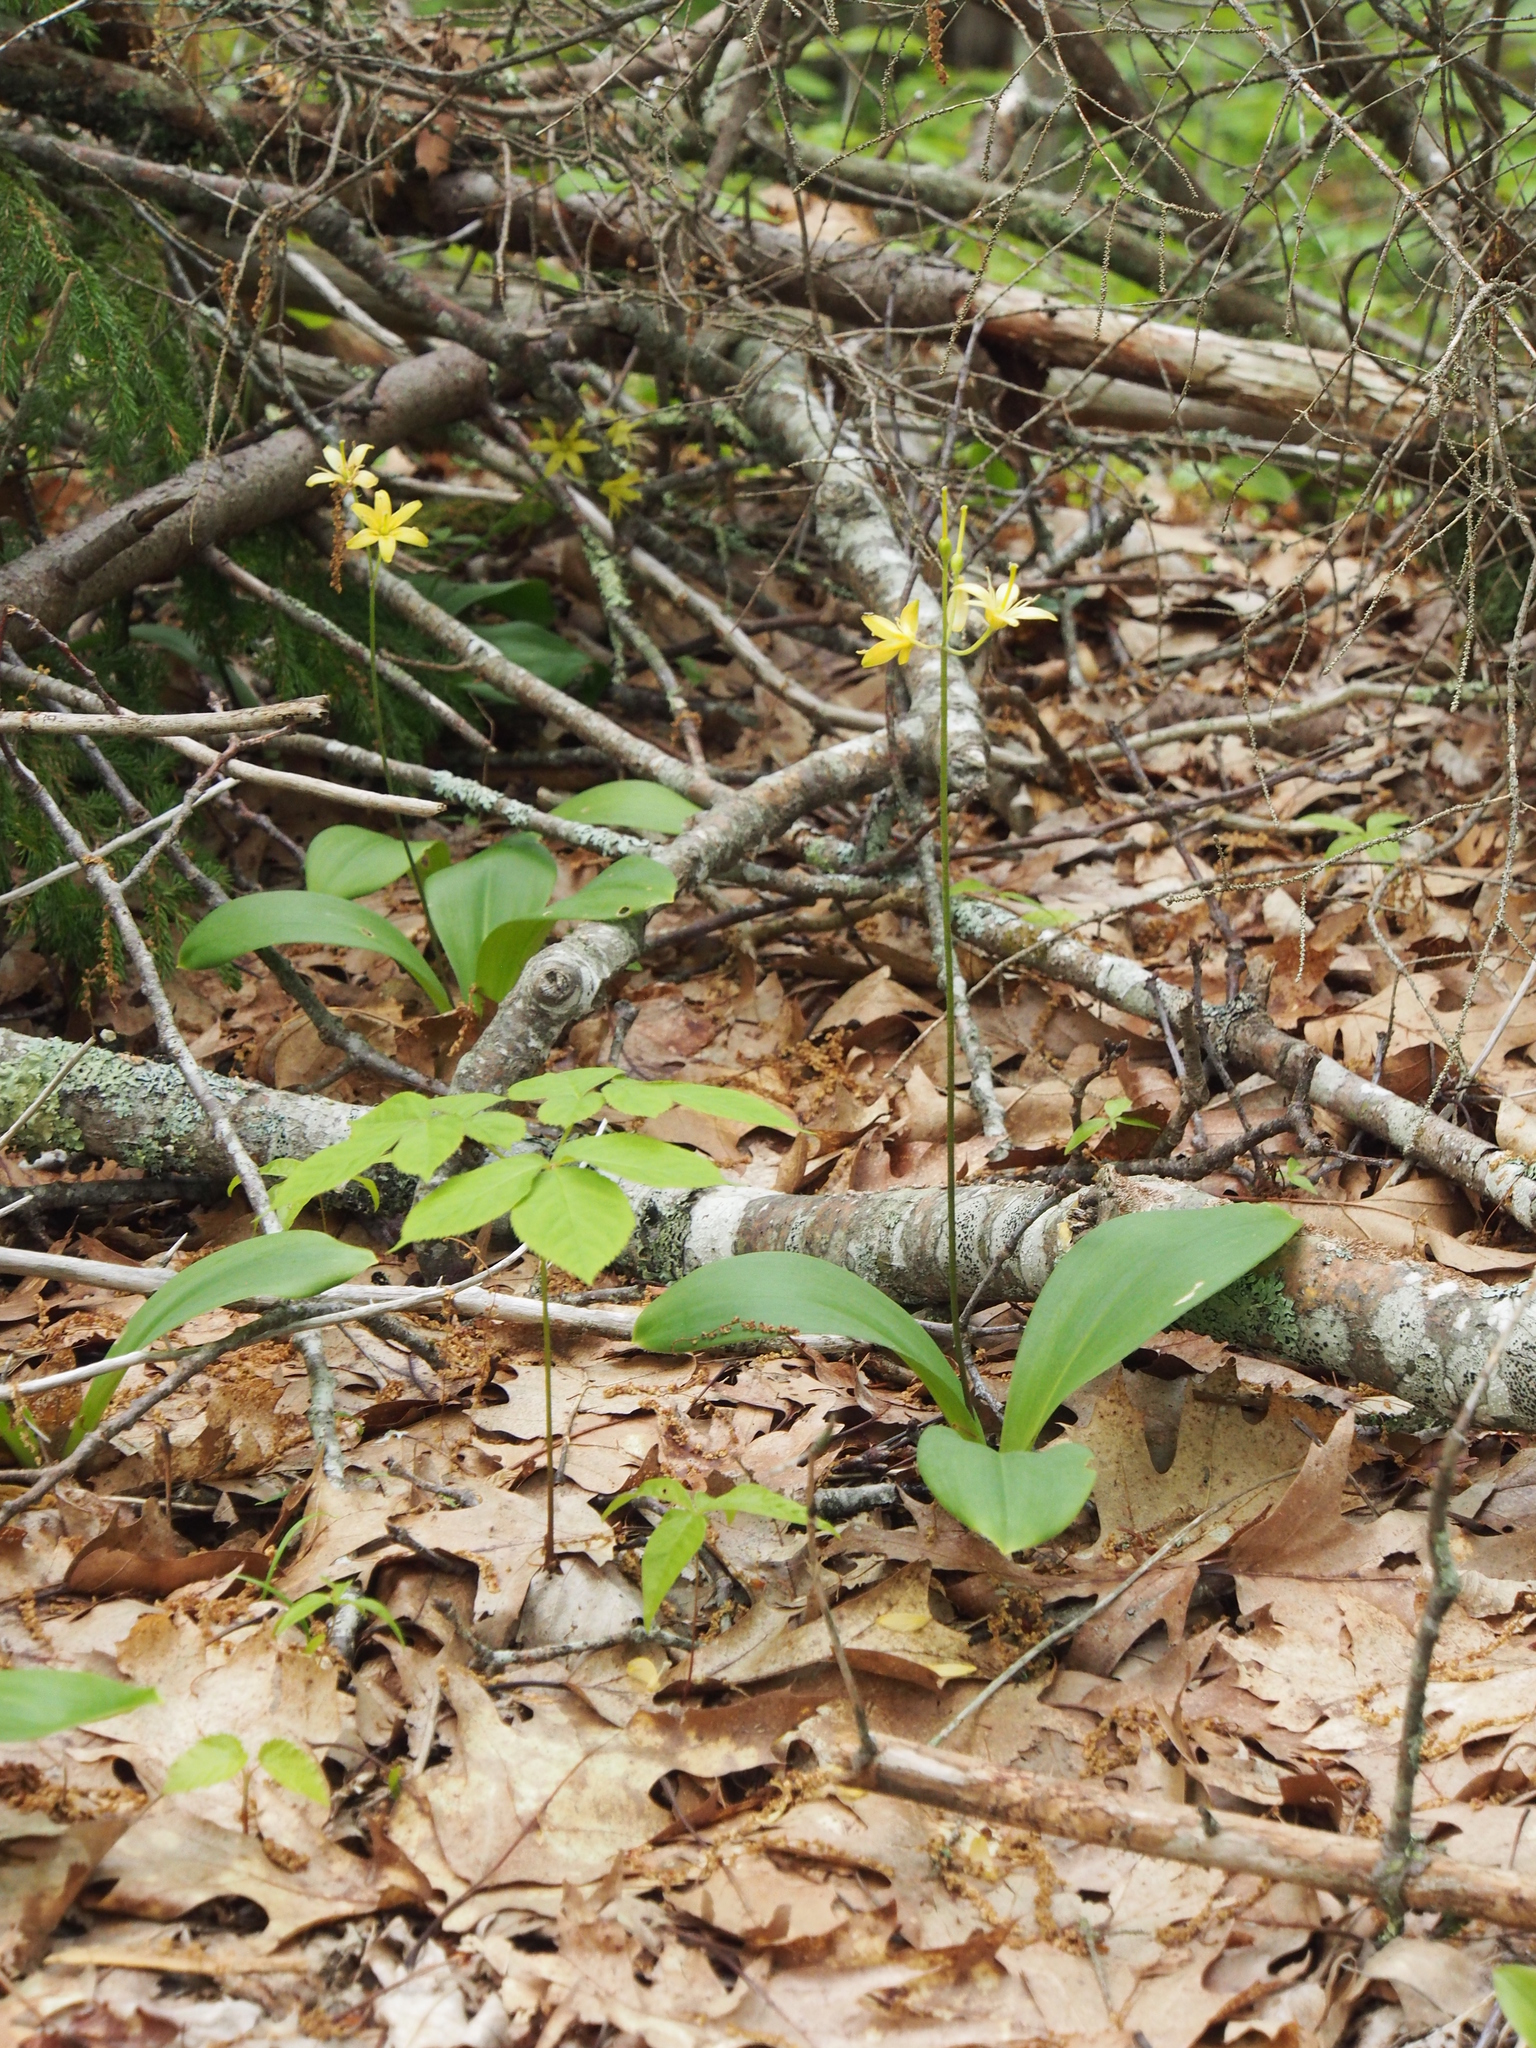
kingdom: Plantae
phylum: Tracheophyta
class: Liliopsida
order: Liliales
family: Liliaceae
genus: Clintonia
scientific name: Clintonia borealis
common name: Yellow clintonia
